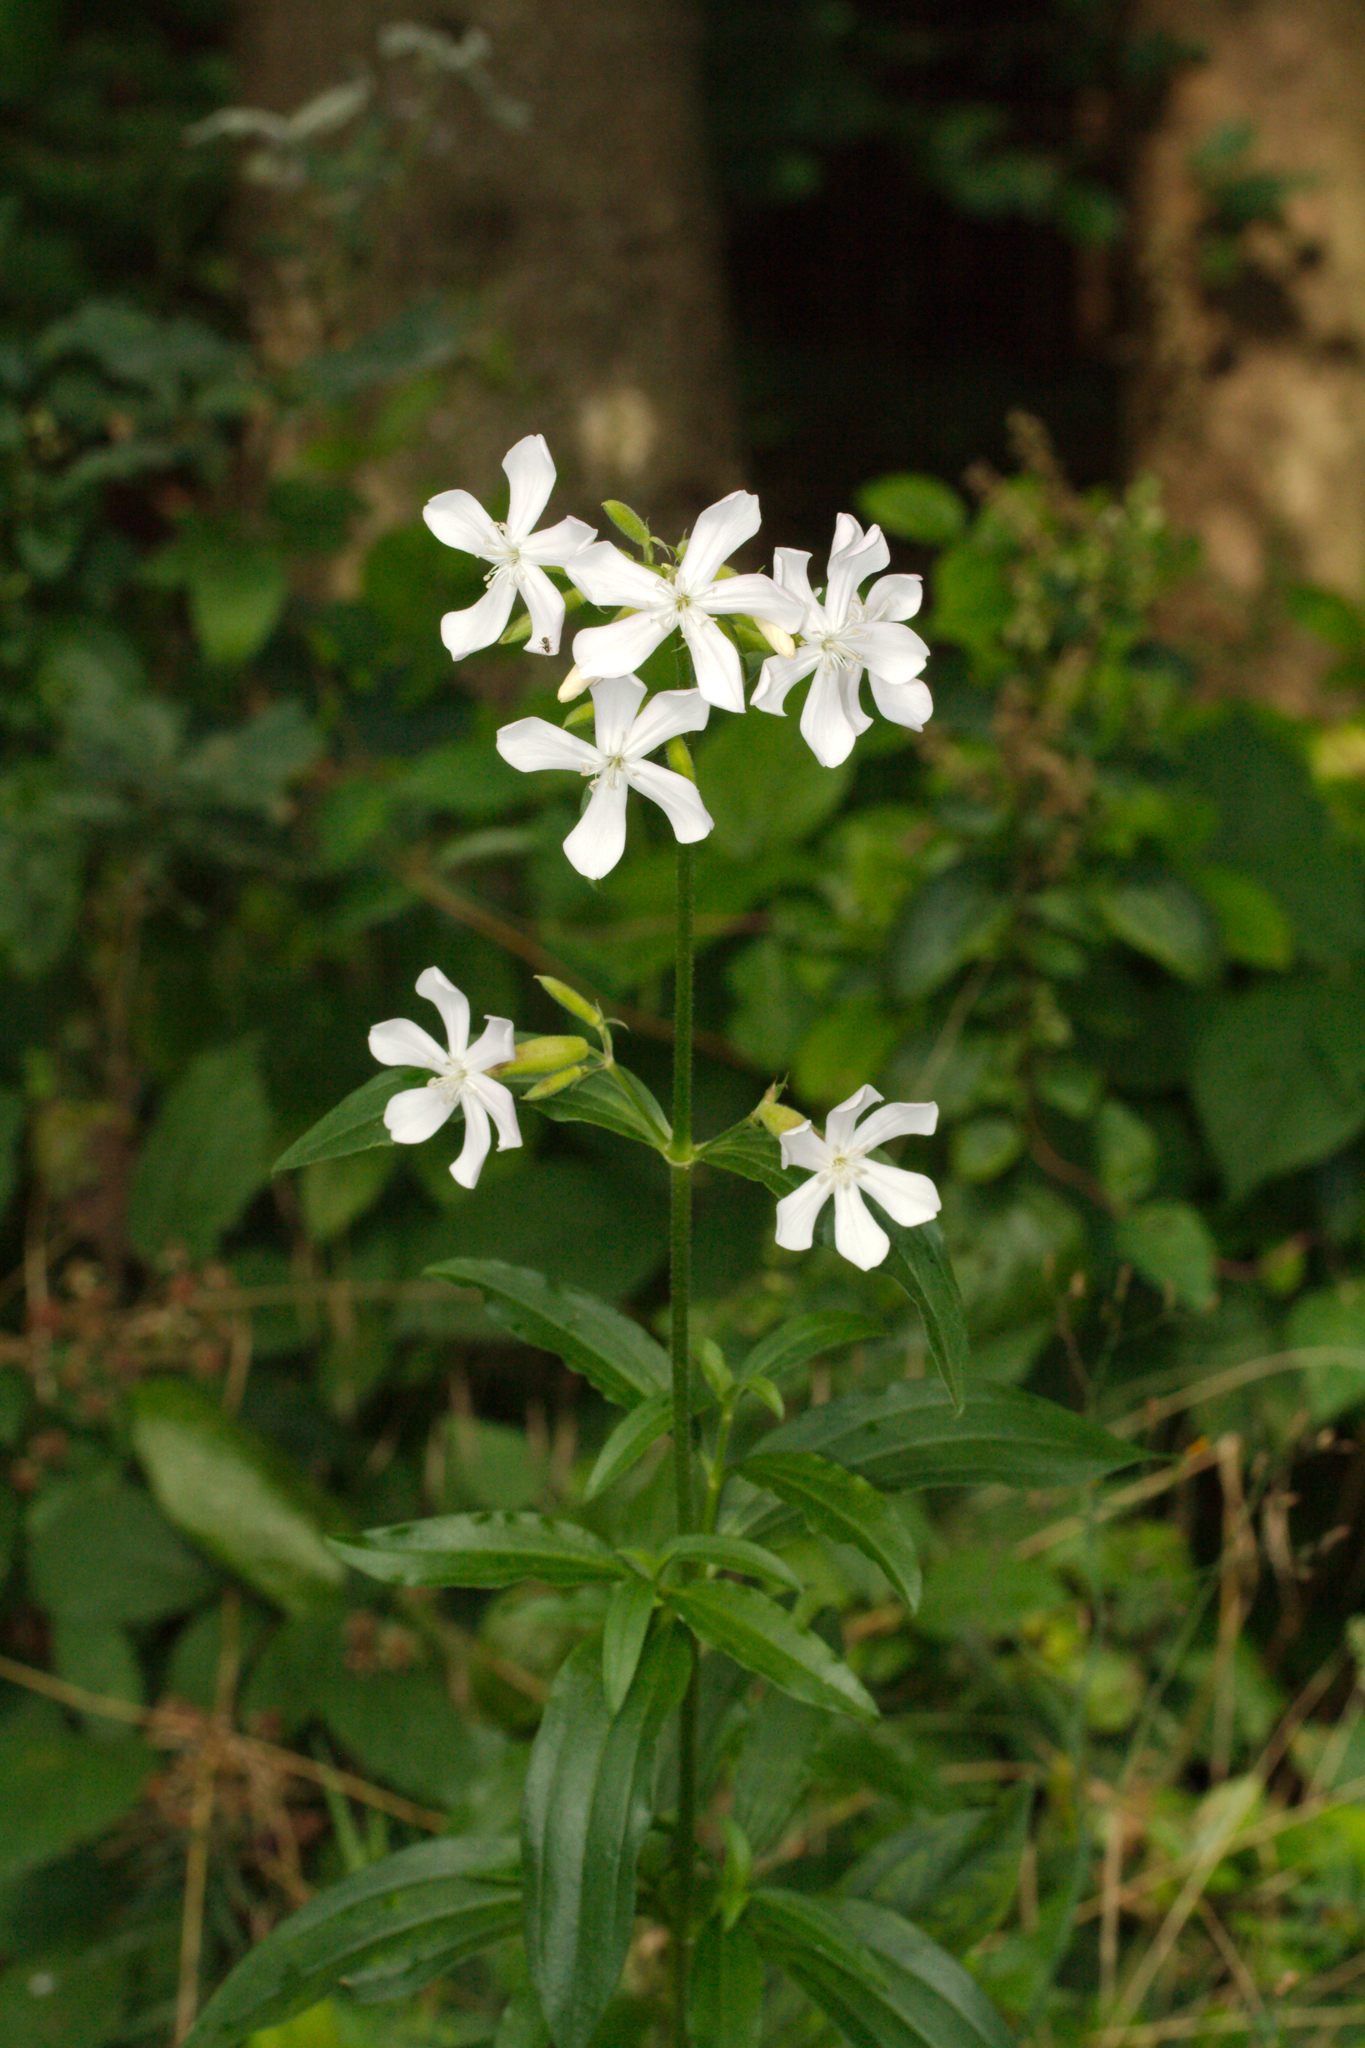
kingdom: Plantae
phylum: Tracheophyta
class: Magnoliopsida
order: Caryophyllales
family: Caryophyllaceae
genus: Saponaria
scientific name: Saponaria officinalis
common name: Soapwort
